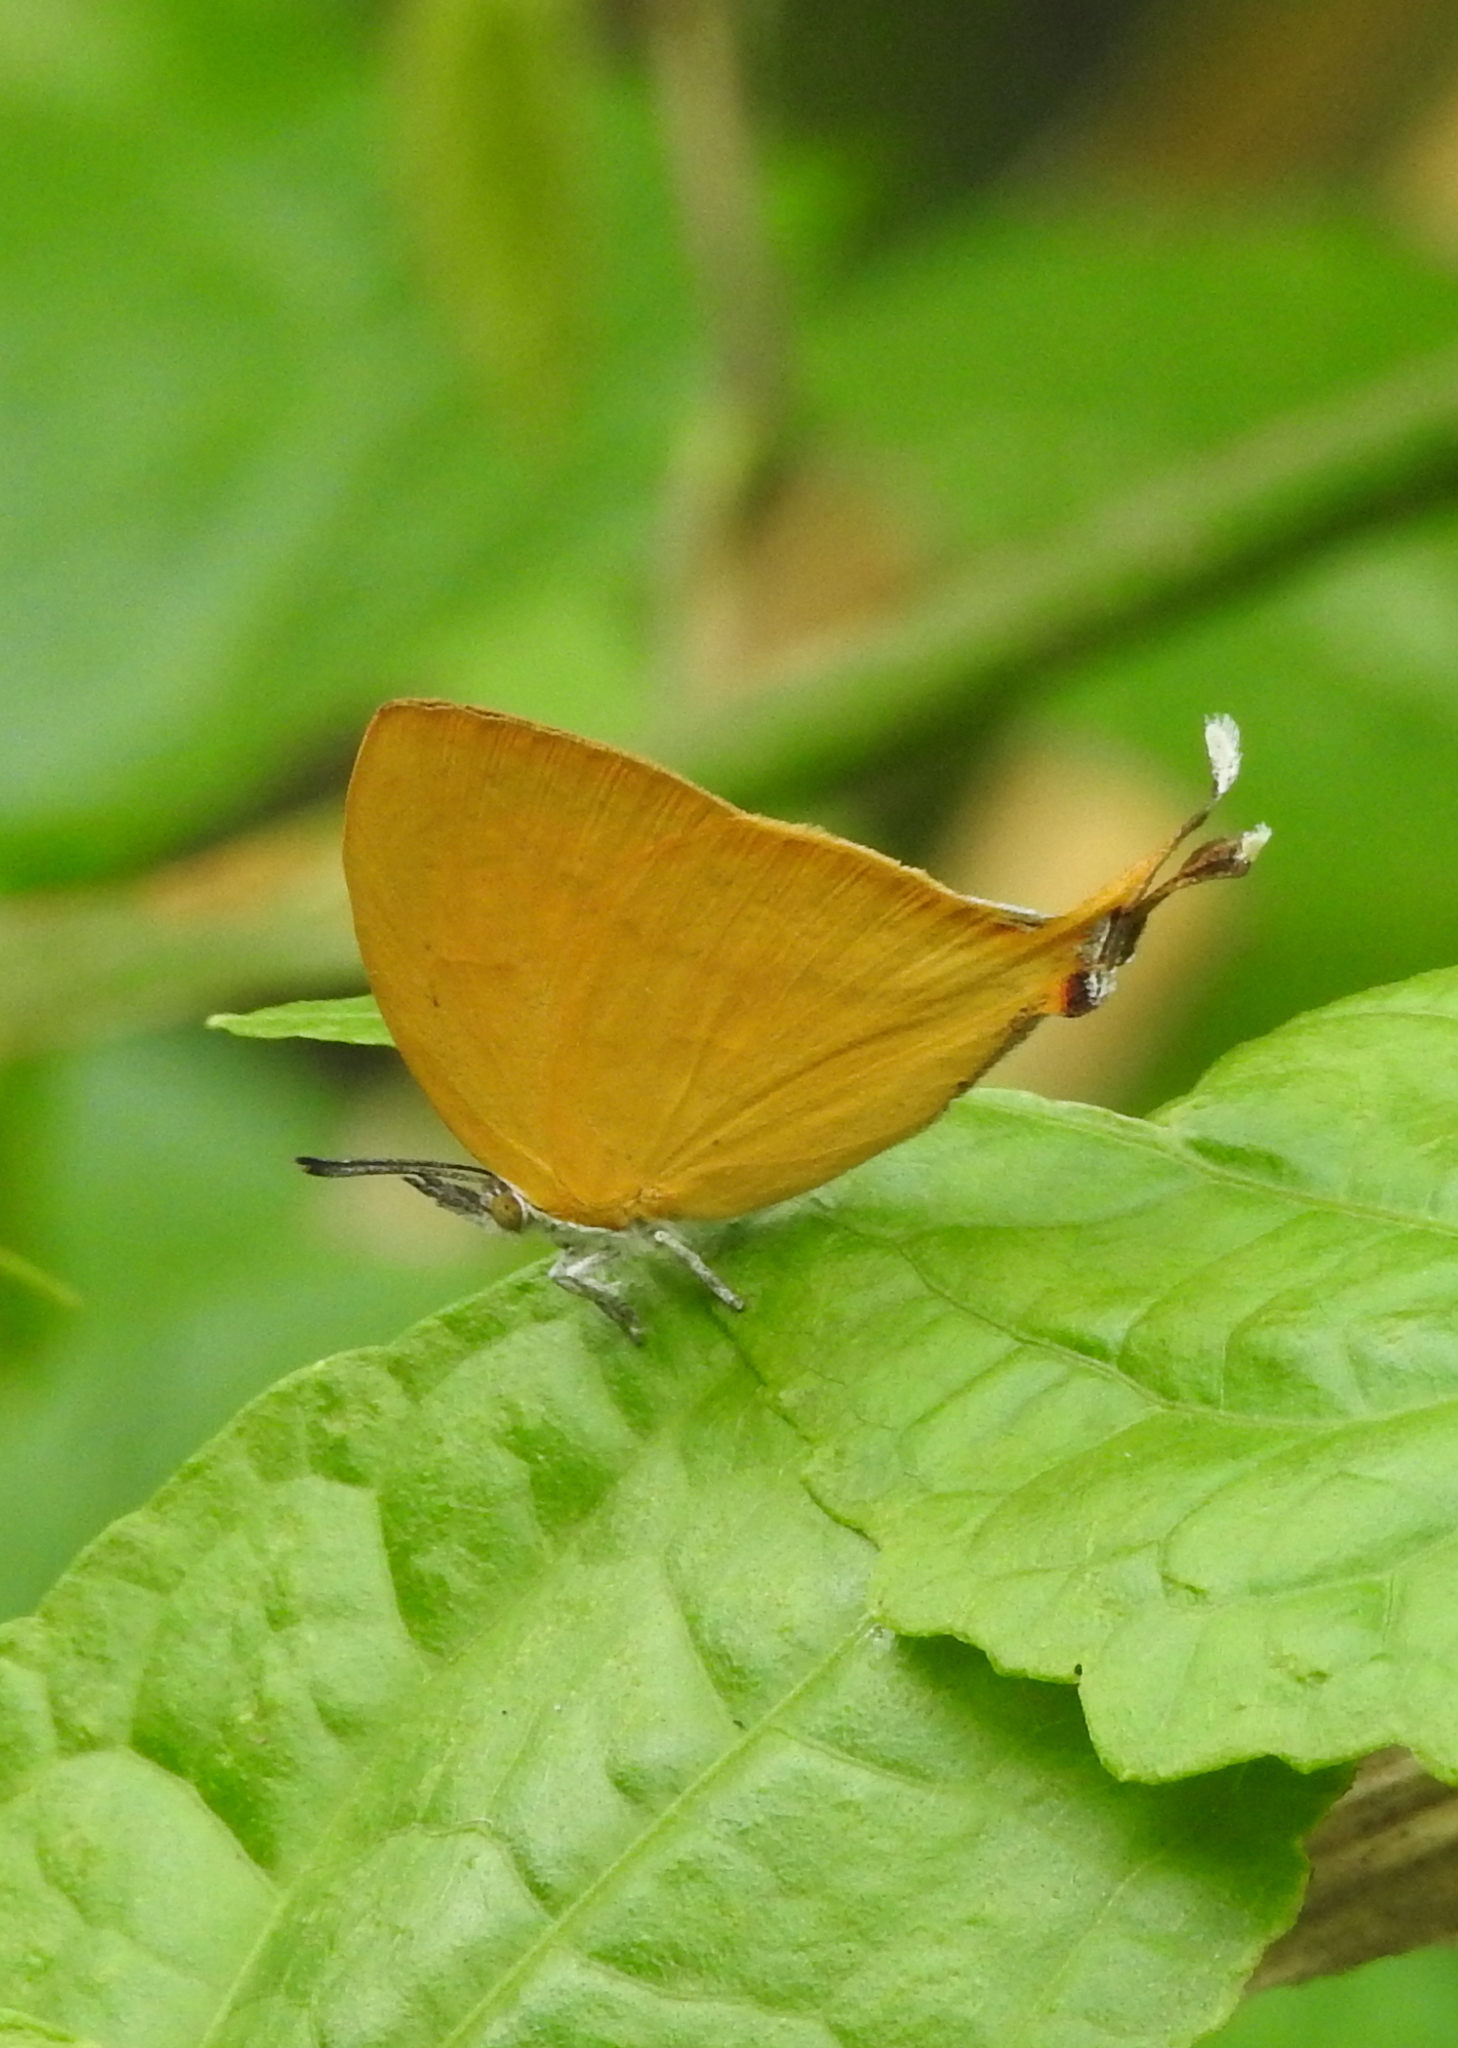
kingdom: Animalia
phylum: Arthropoda
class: Insecta
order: Lepidoptera
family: Lycaenidae
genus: Loxura
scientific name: Loxura atymnus
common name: Common yamfly
